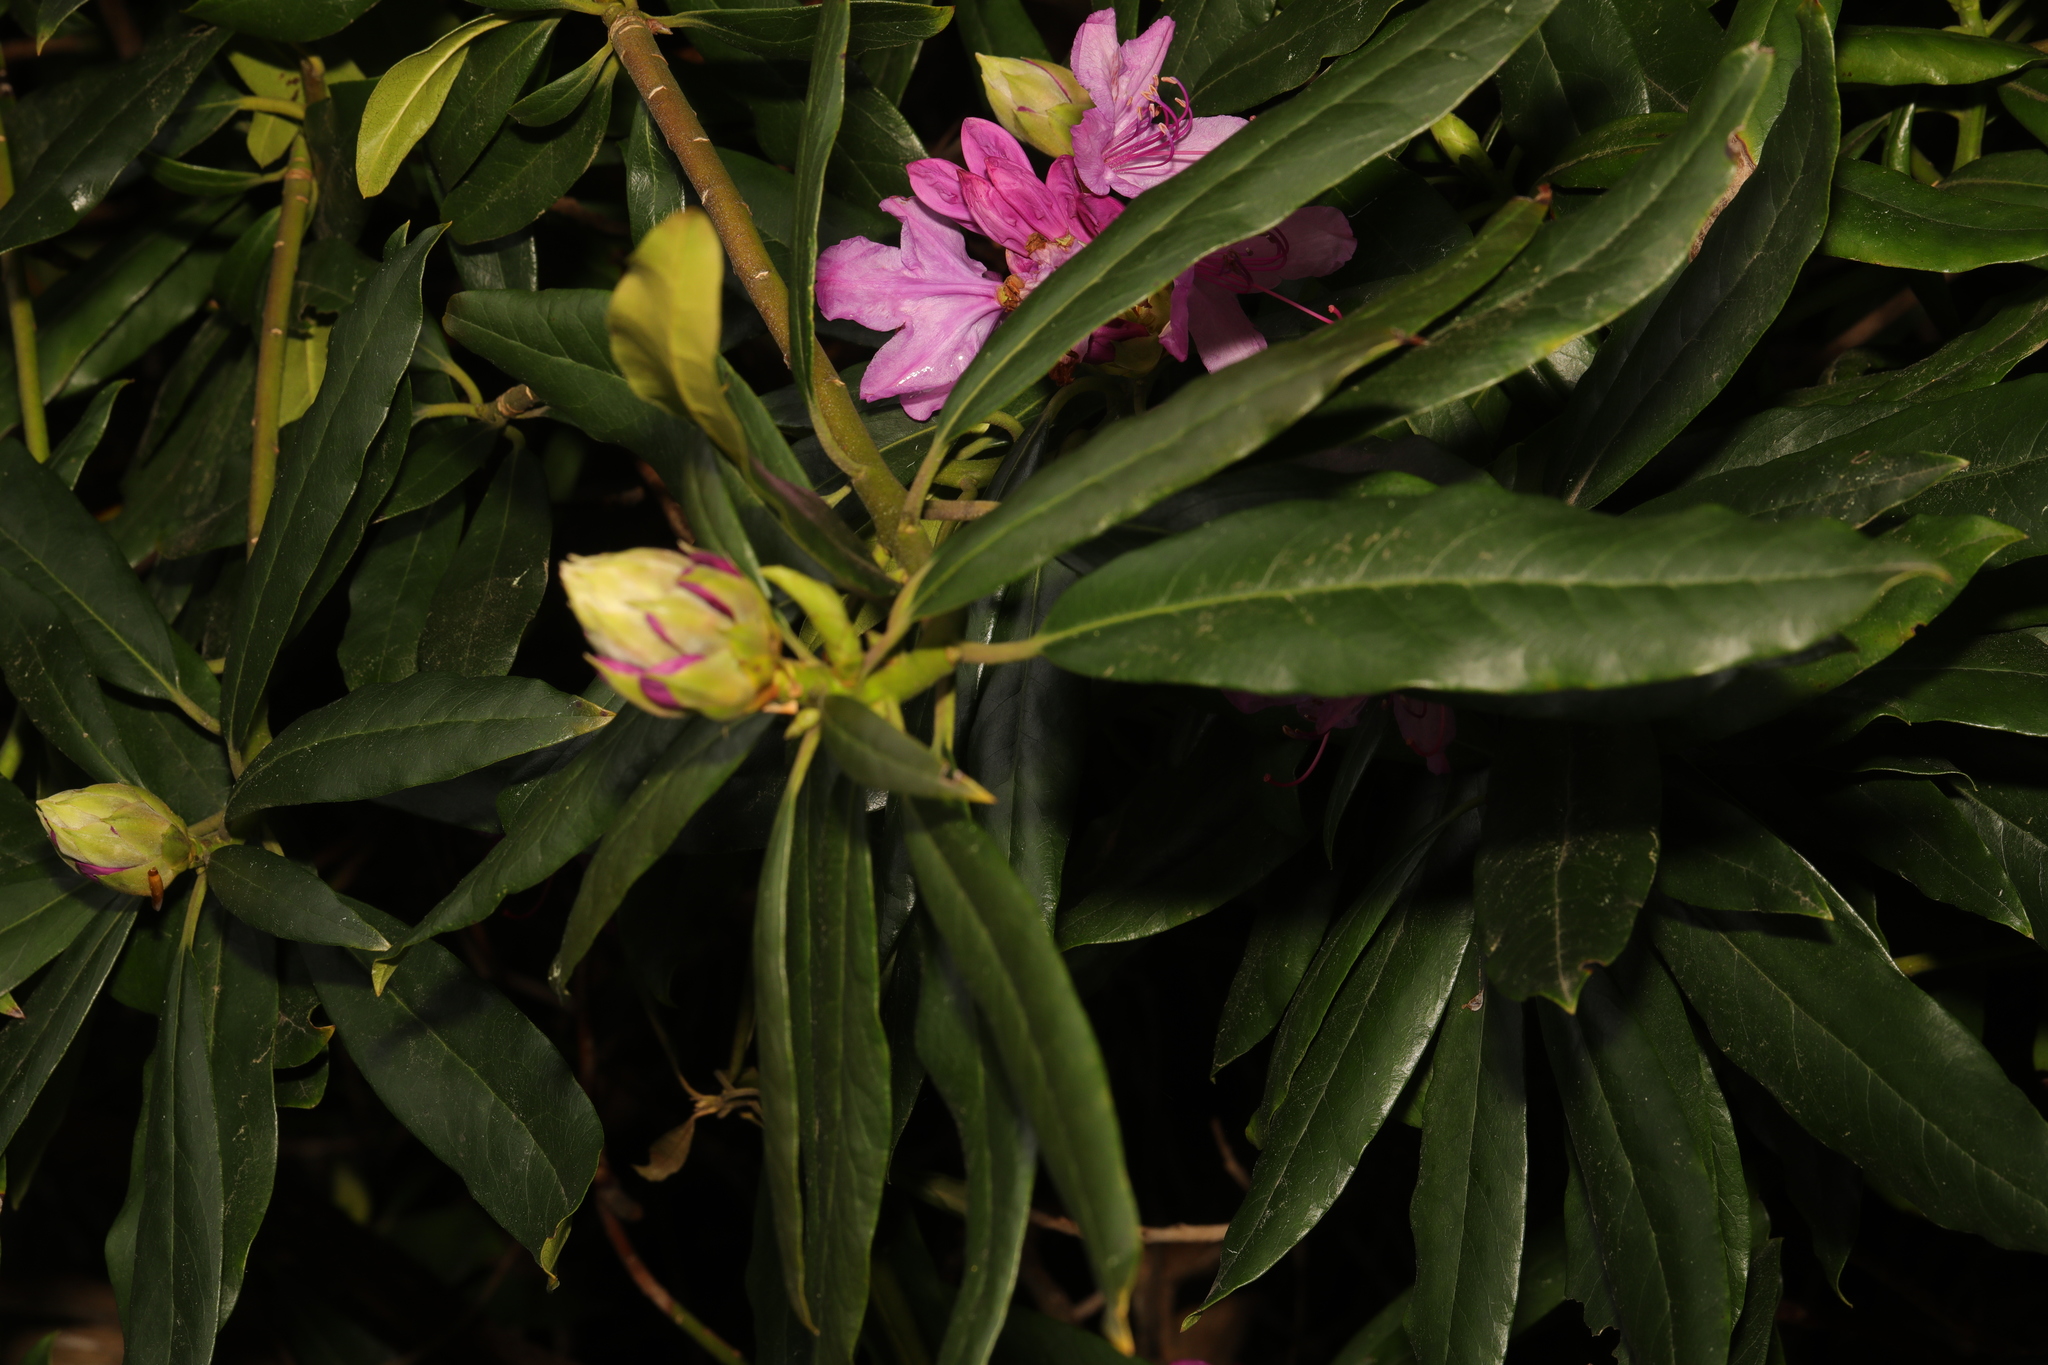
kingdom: Plantae
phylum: Tracheophyta
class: Magnoliopsida
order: Ericales
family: Ericaceae
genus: Rhododendron
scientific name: Rhododendron ponticum
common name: Rhododendron
